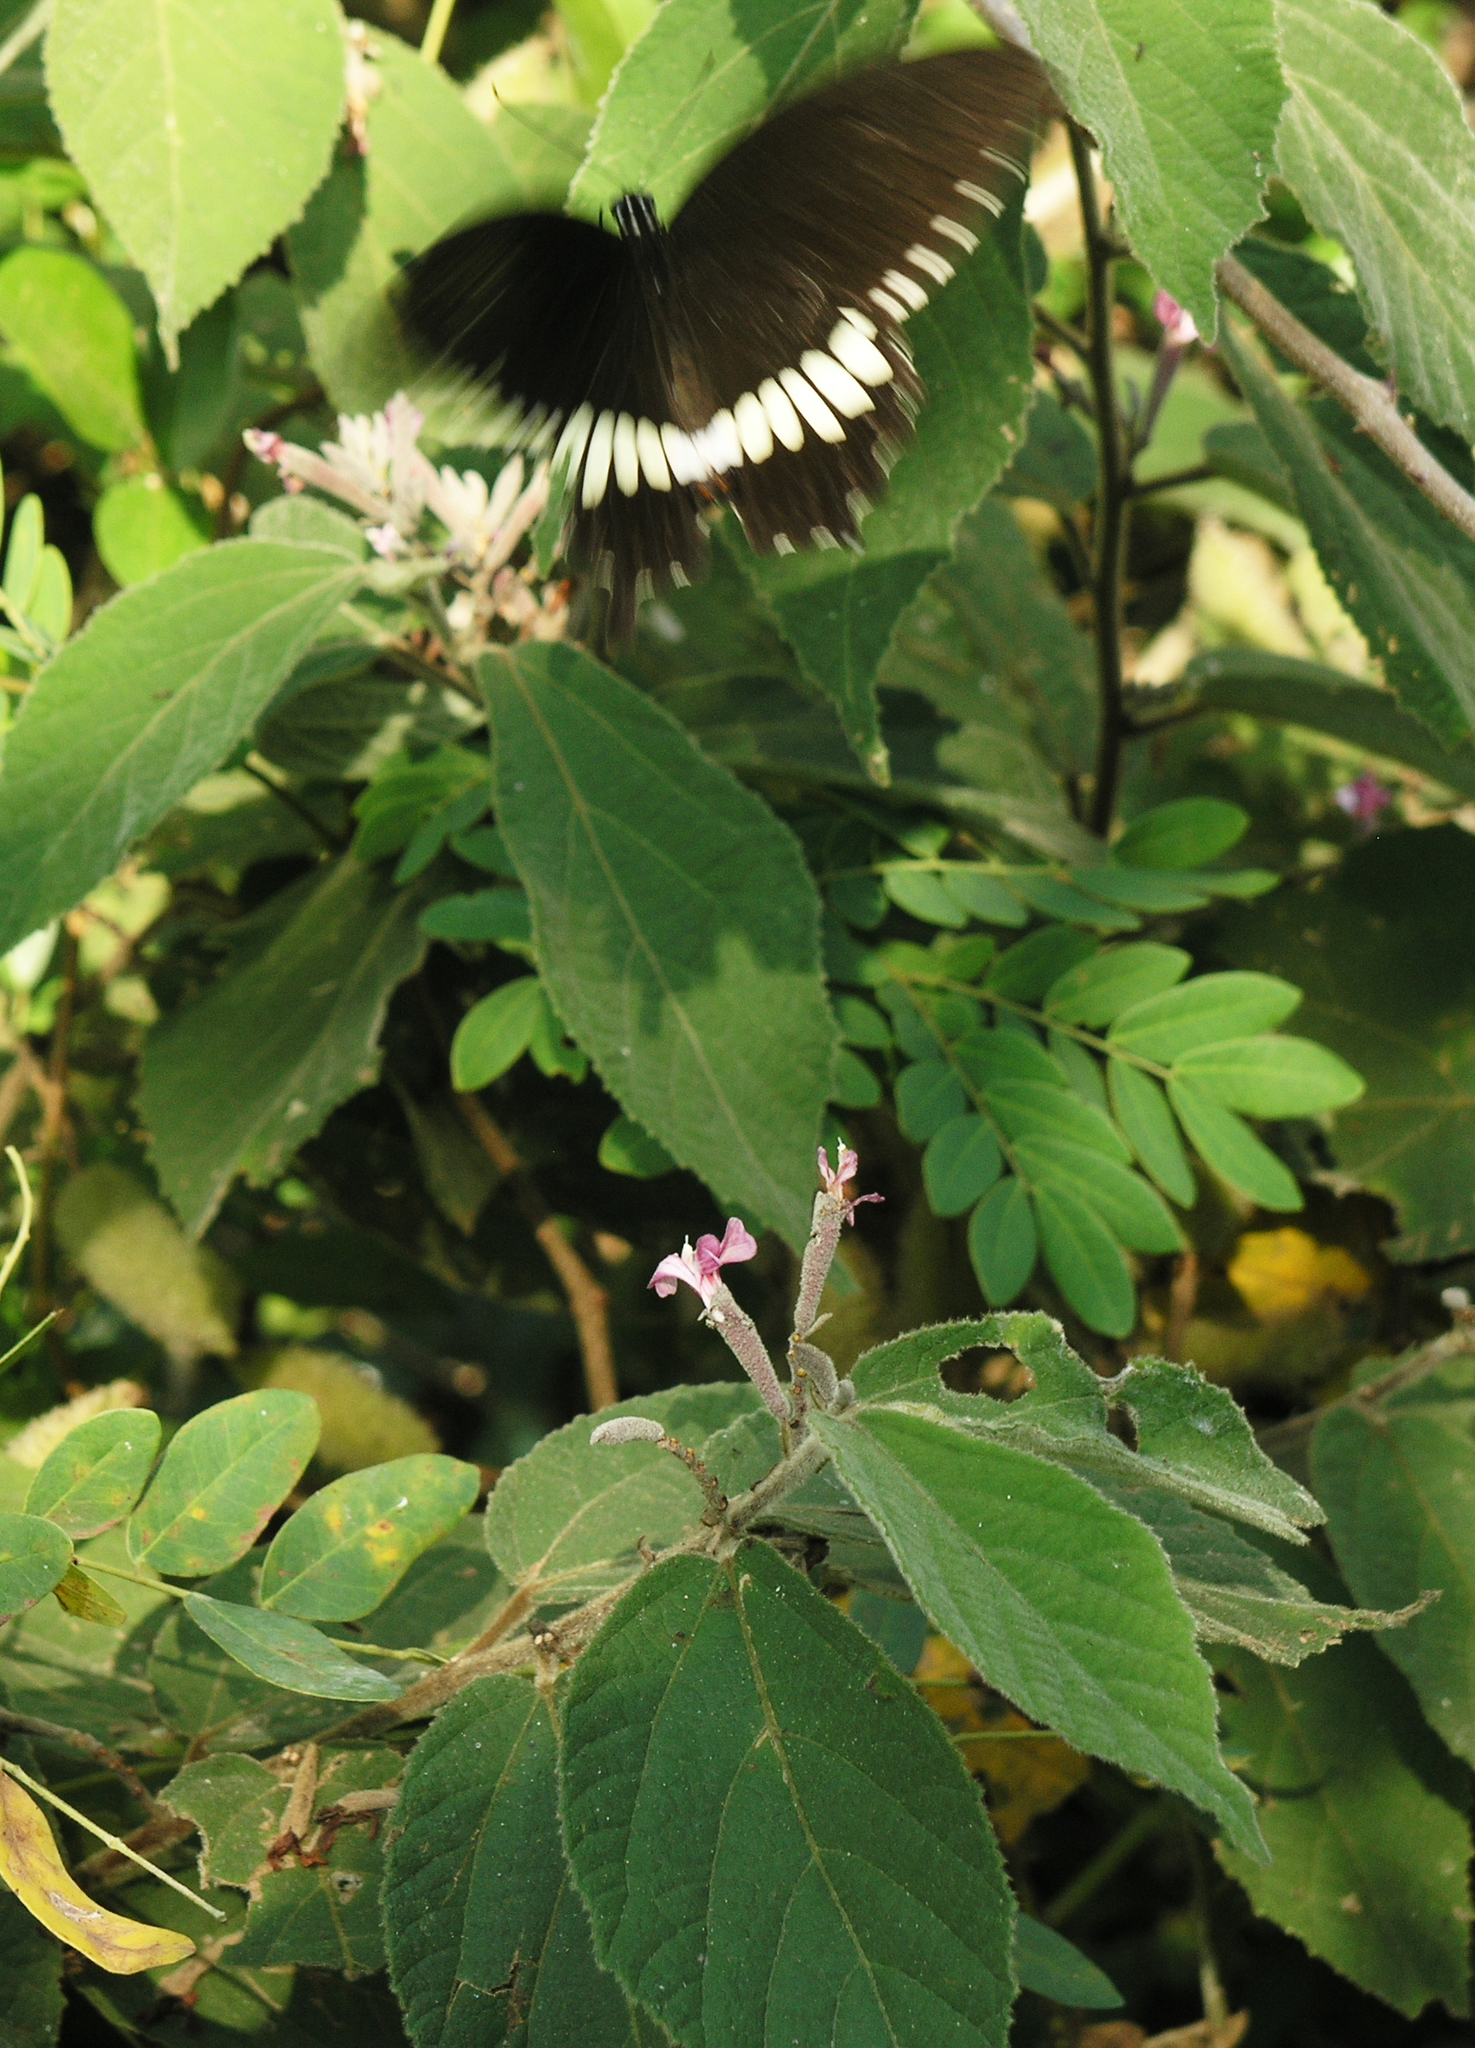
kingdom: Animalia
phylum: Arthropoda
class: Insecta
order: Lepidoptera
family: Papilionidae
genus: Papilio
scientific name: Papilio polytes
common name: Common mormon
